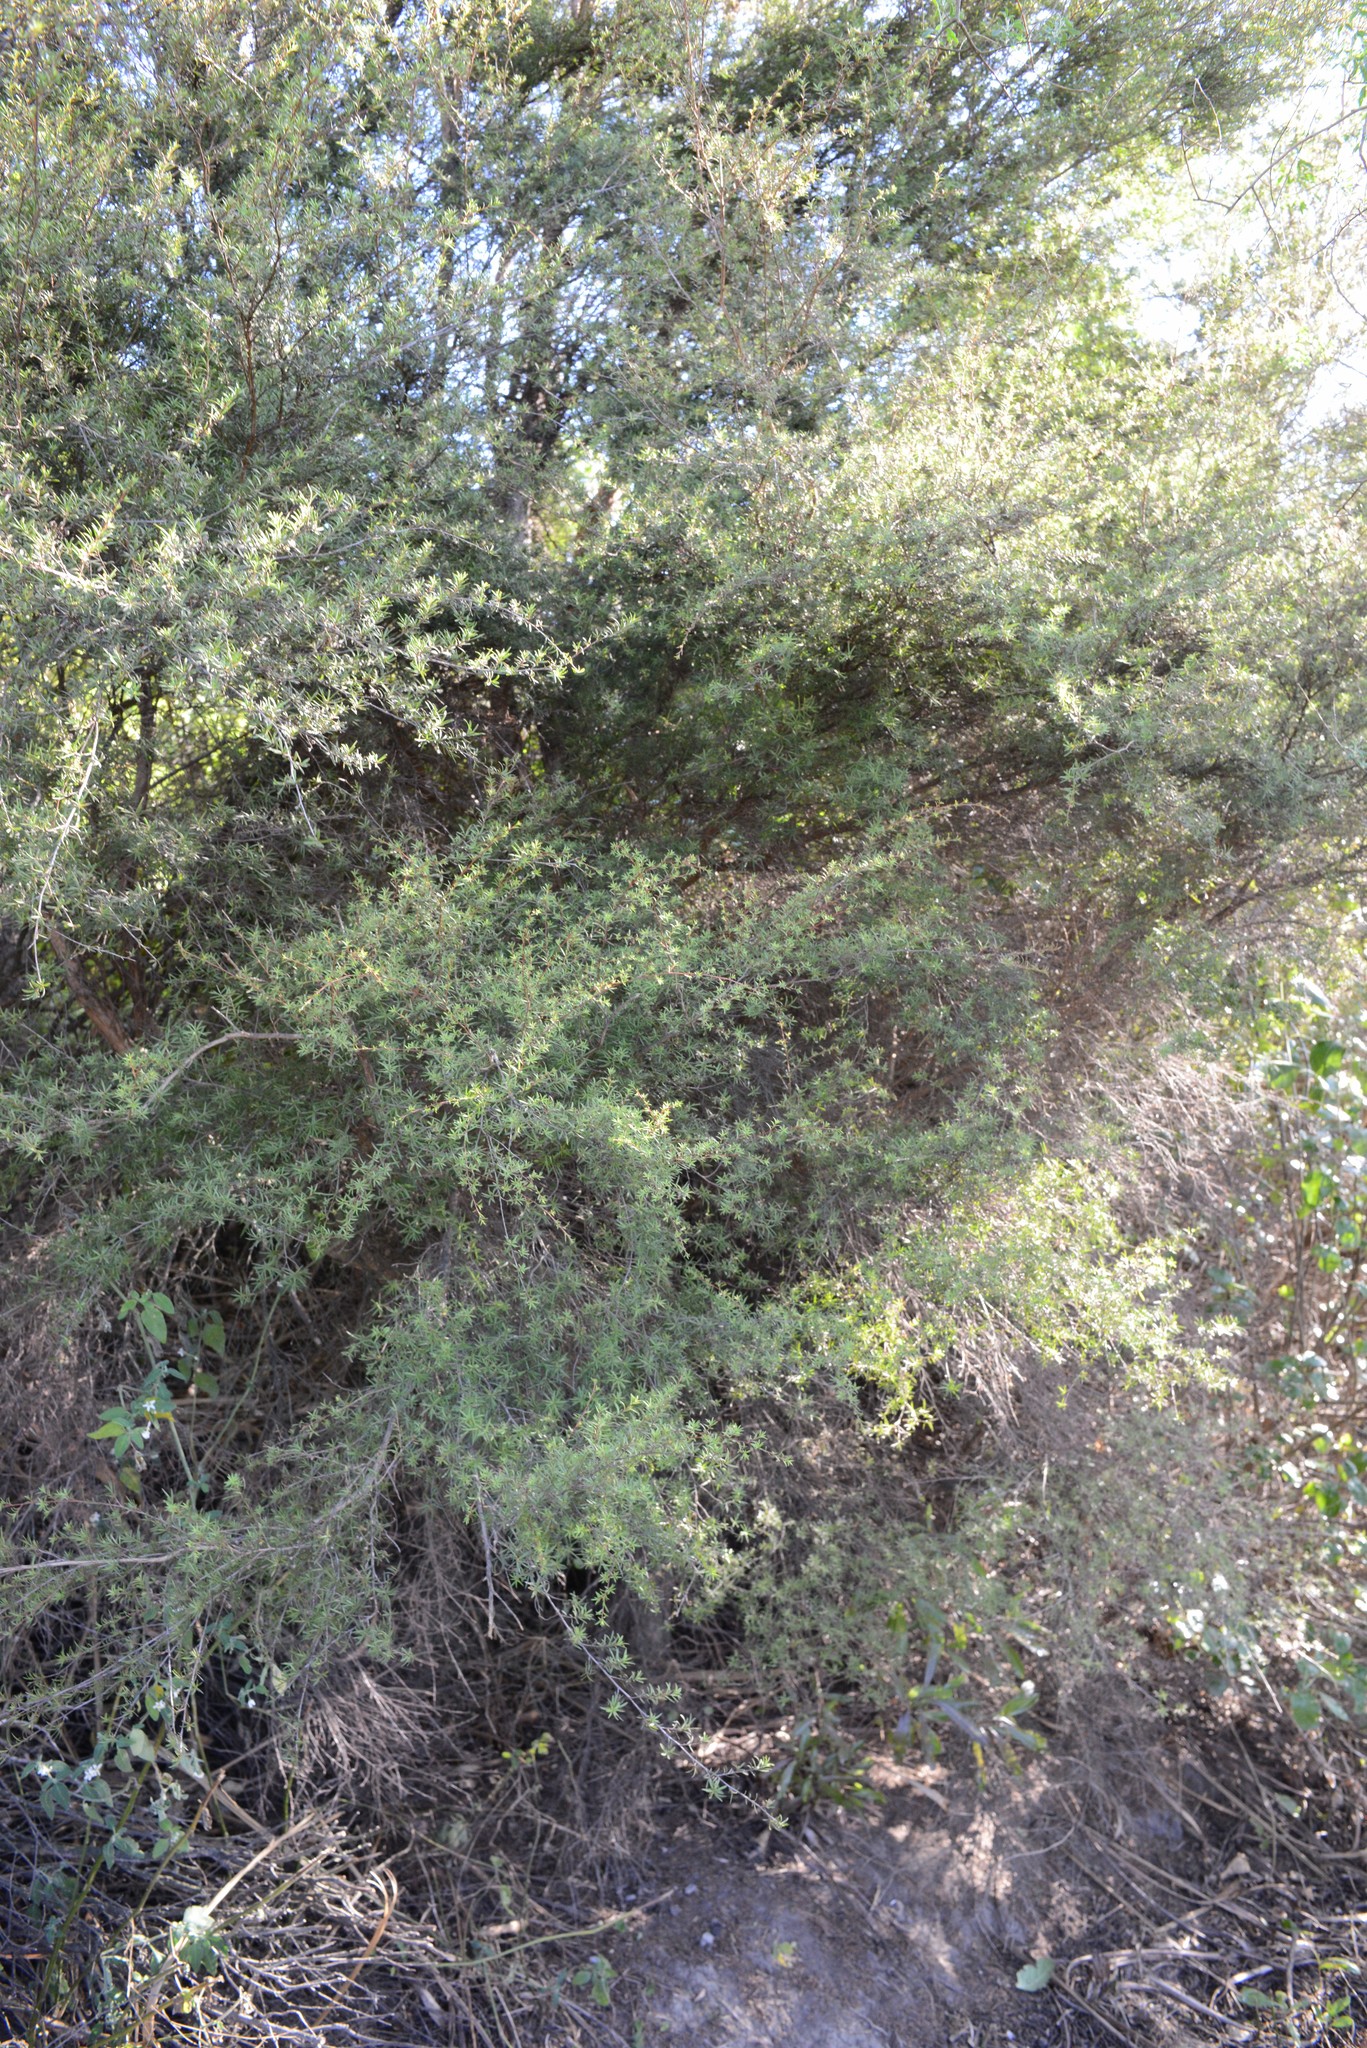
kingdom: Plantae
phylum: Tracheophyta
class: Magnoliopsida
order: Myrtales
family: Myrtaceae
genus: Kunzea
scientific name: Kunzea robusta
